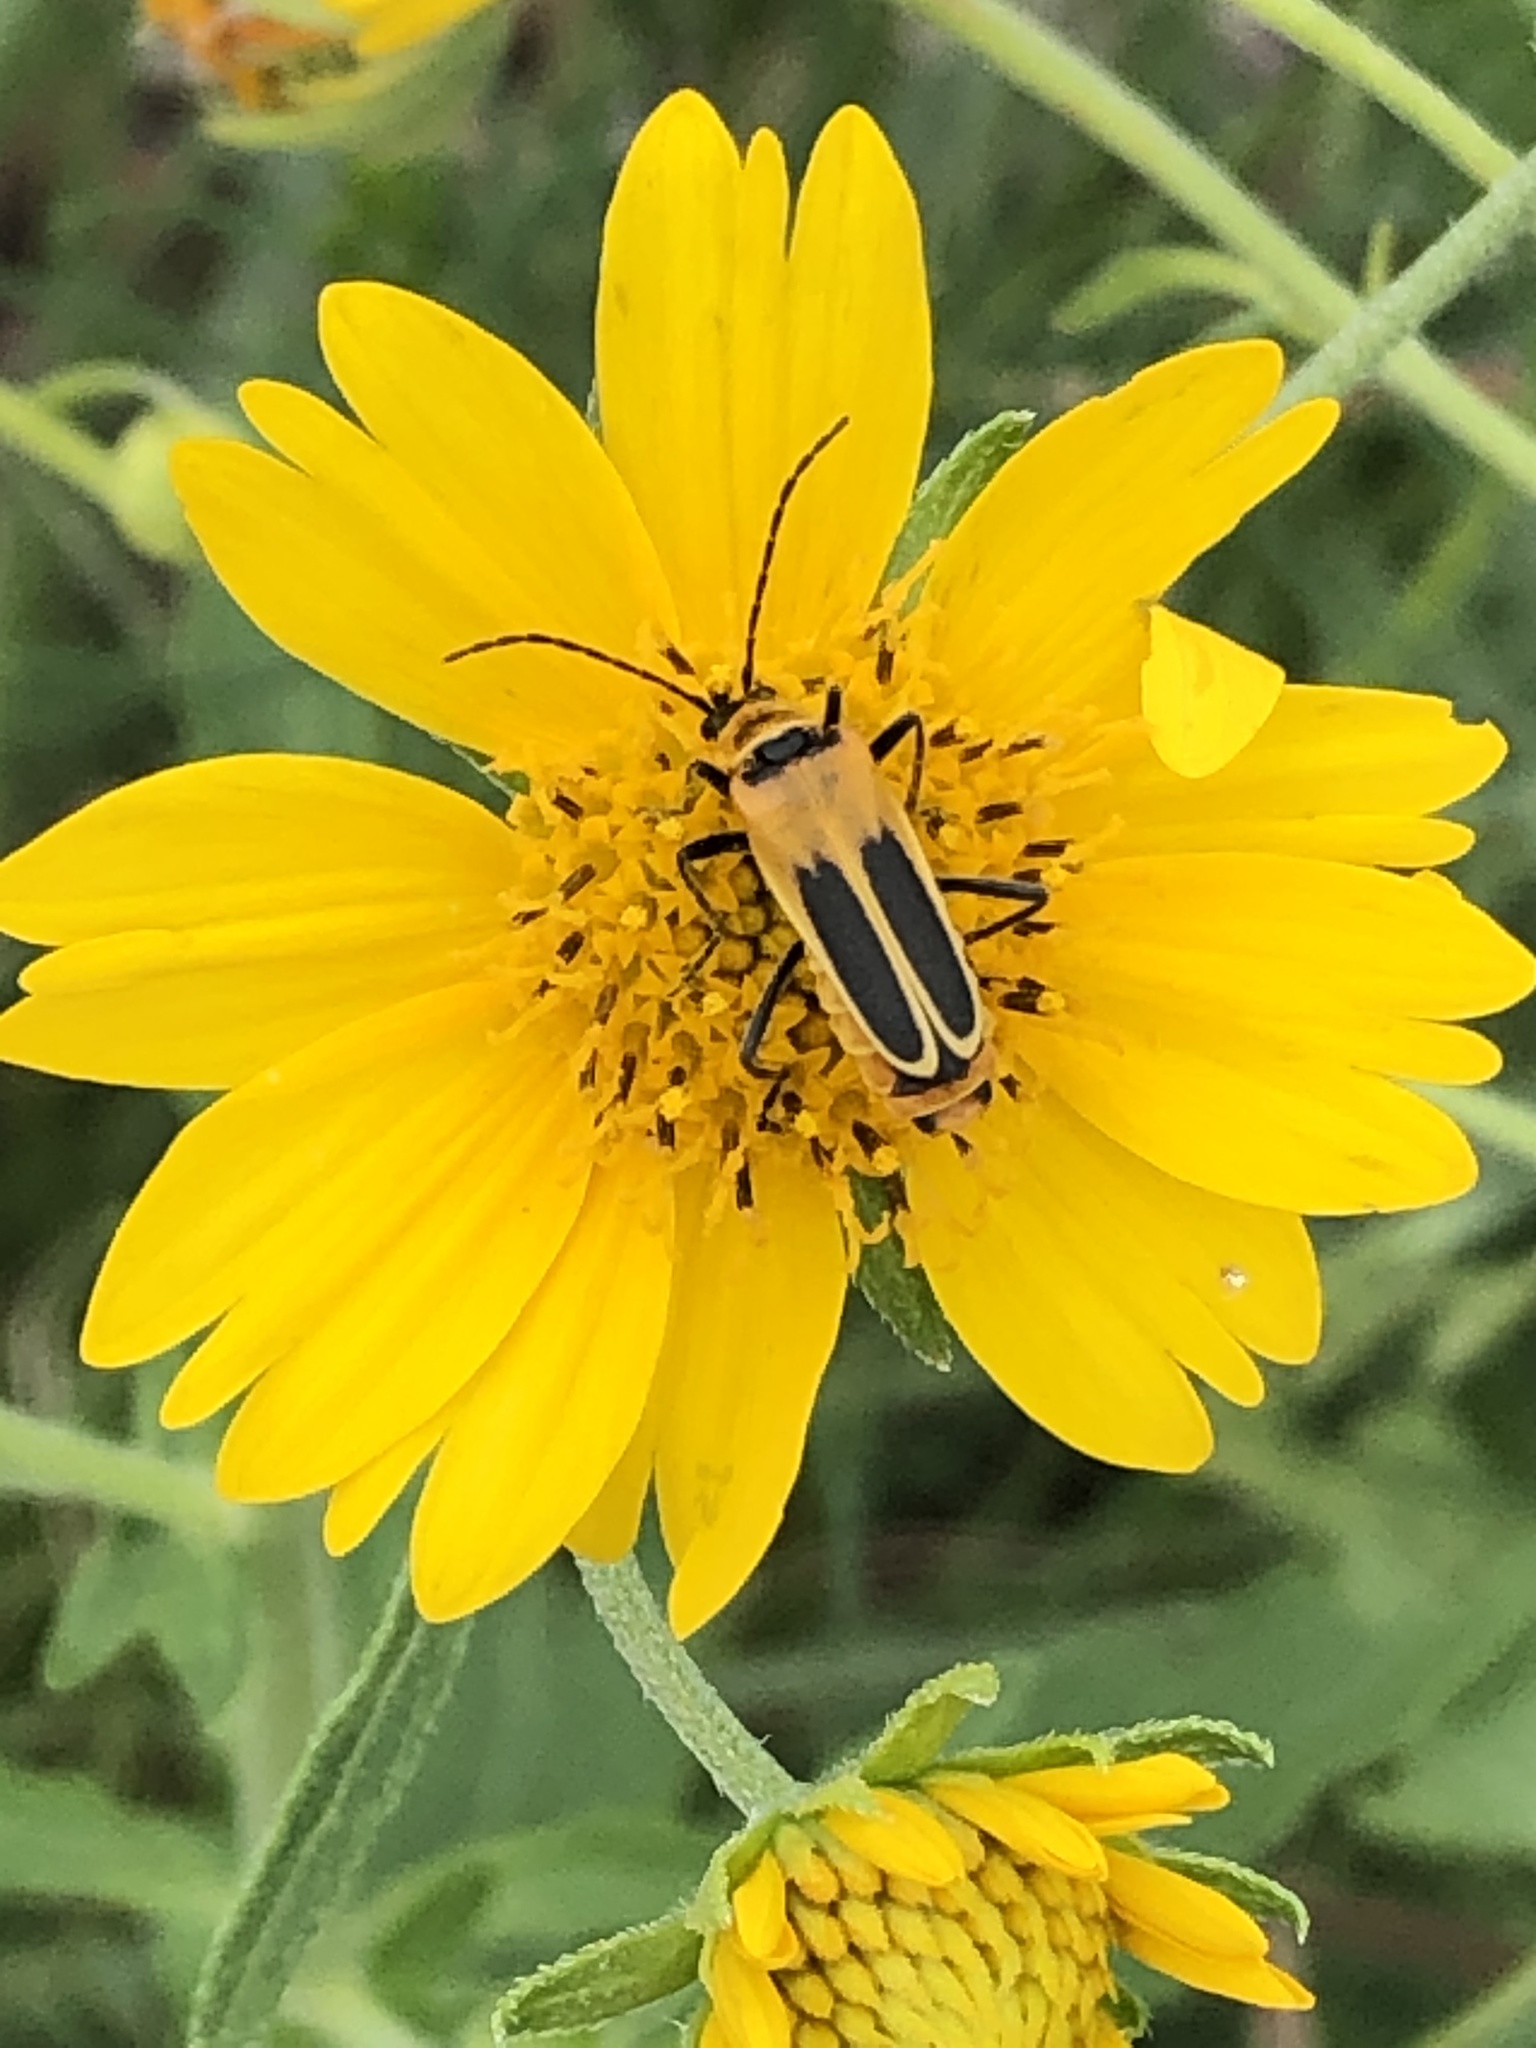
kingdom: Animalia
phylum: Arthropoda
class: Insecta
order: Coleoptera
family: Cantharidae
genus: Chauliognathus
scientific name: Chauliognathus lewisi
